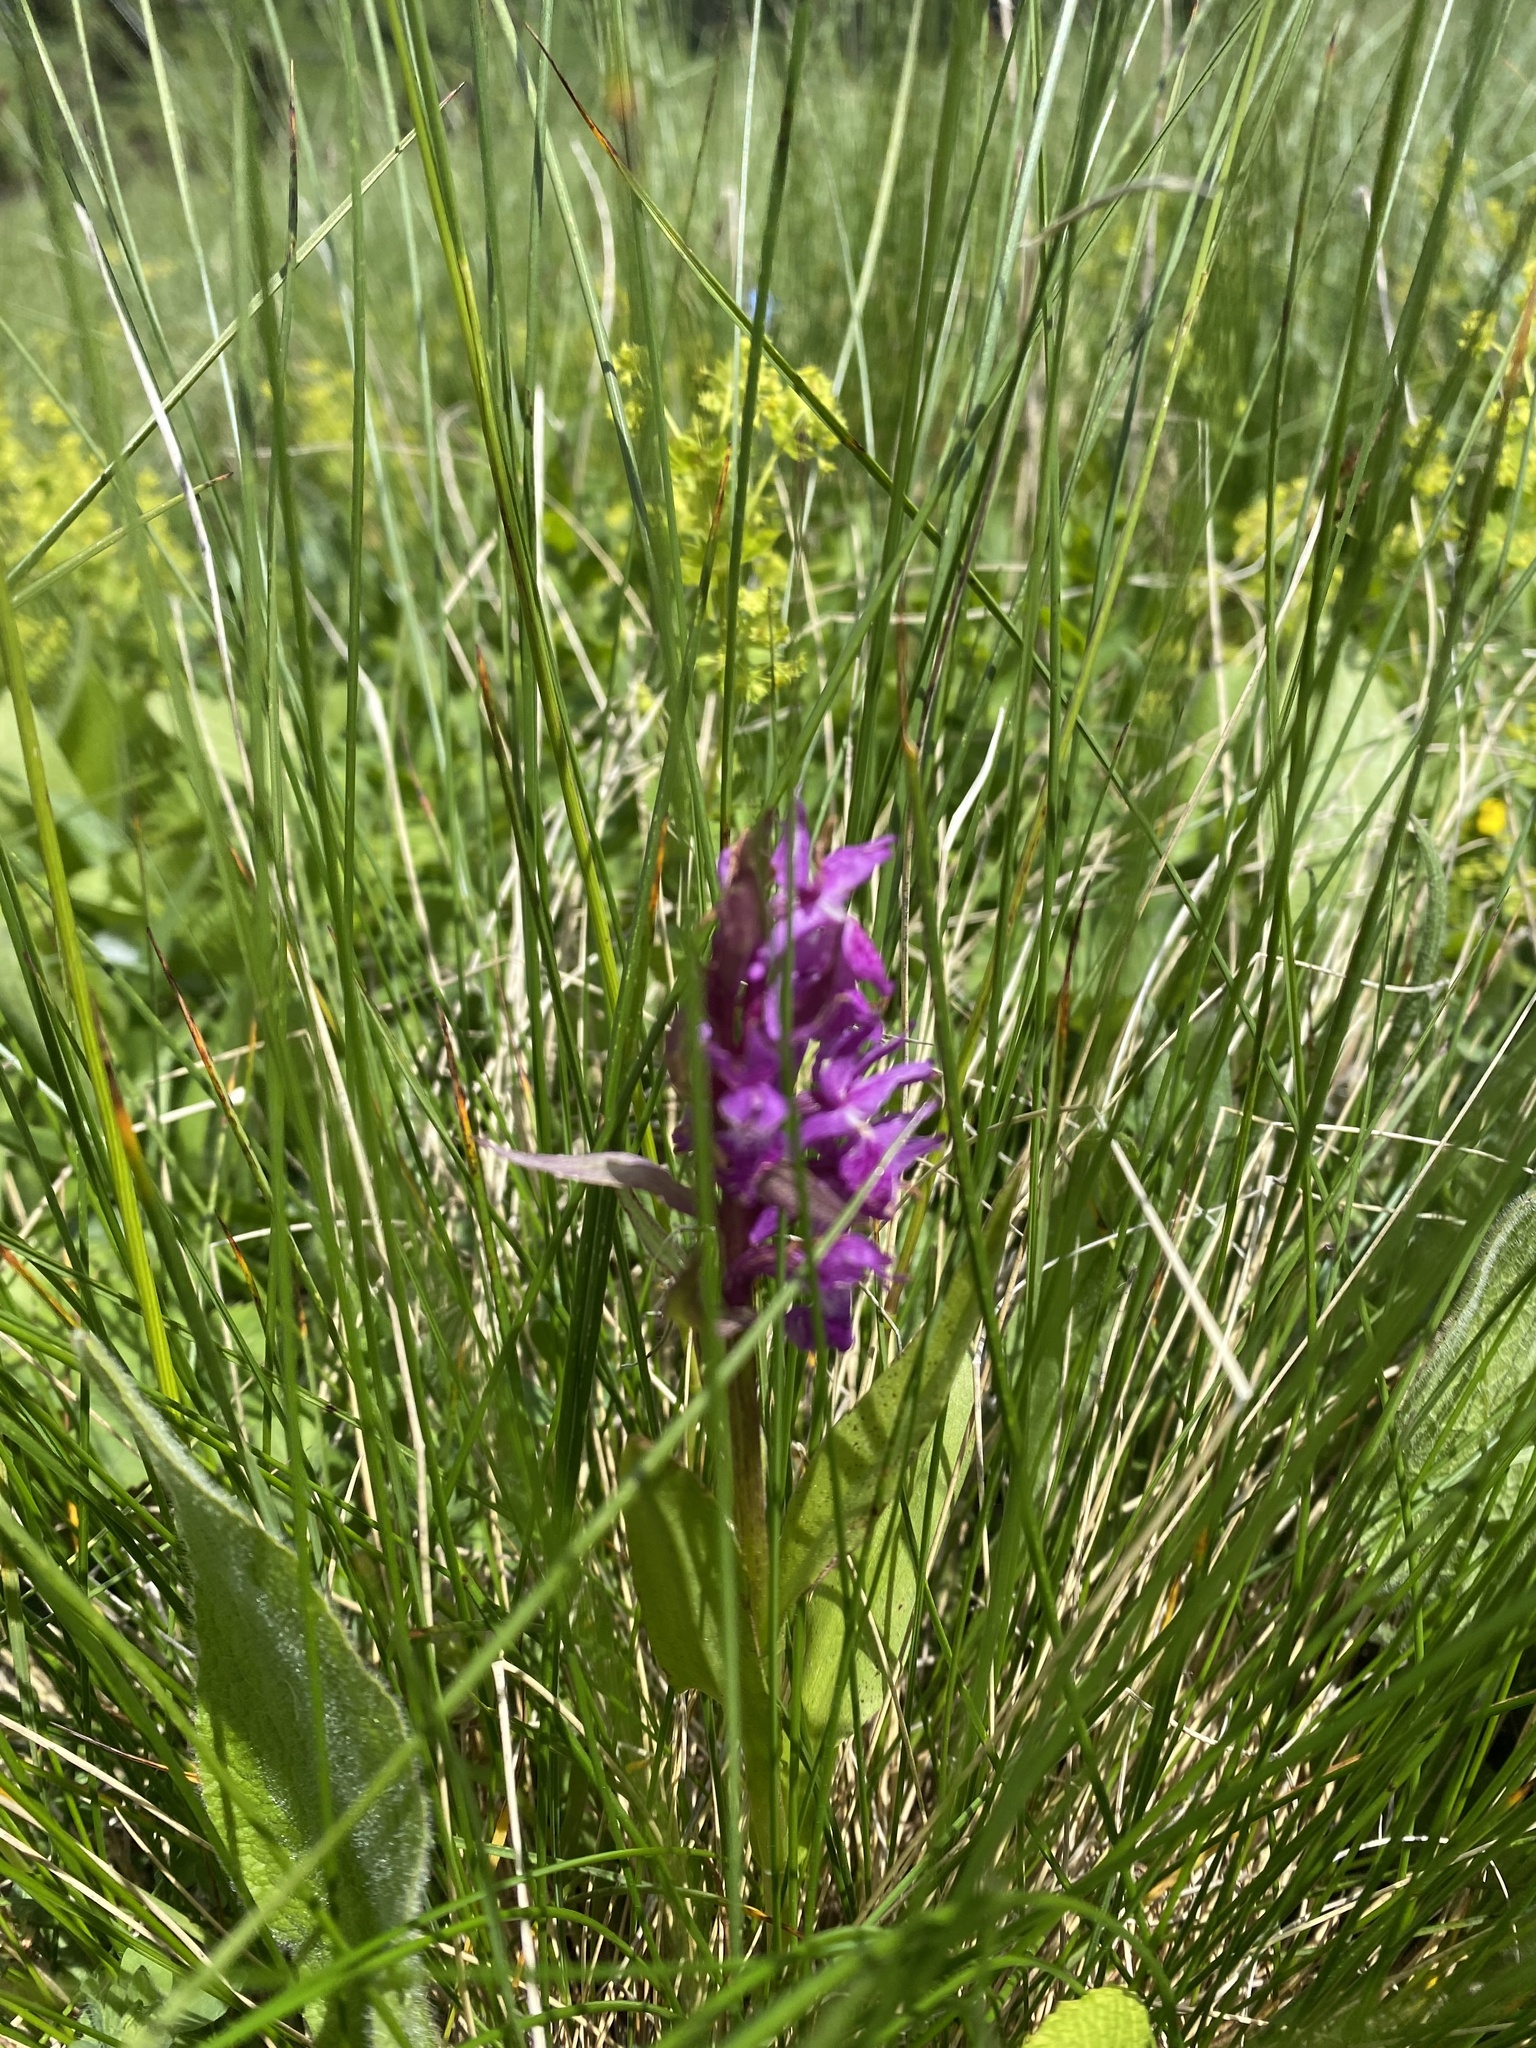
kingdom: Plantae
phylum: Tracheophyta
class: Liliopsida
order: Asparagales
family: Orchidaceae
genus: Dactylorhiza
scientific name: Dactylorhiza euxina
